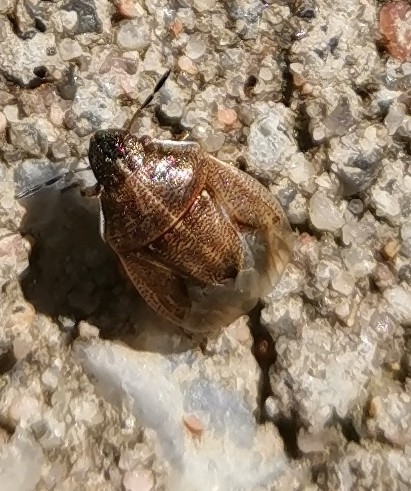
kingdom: Animalia
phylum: Arthropoda
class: Insecta
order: Hemiptera
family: Pentatomidae
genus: Neottiglossa
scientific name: Neottiglossa pusilla
